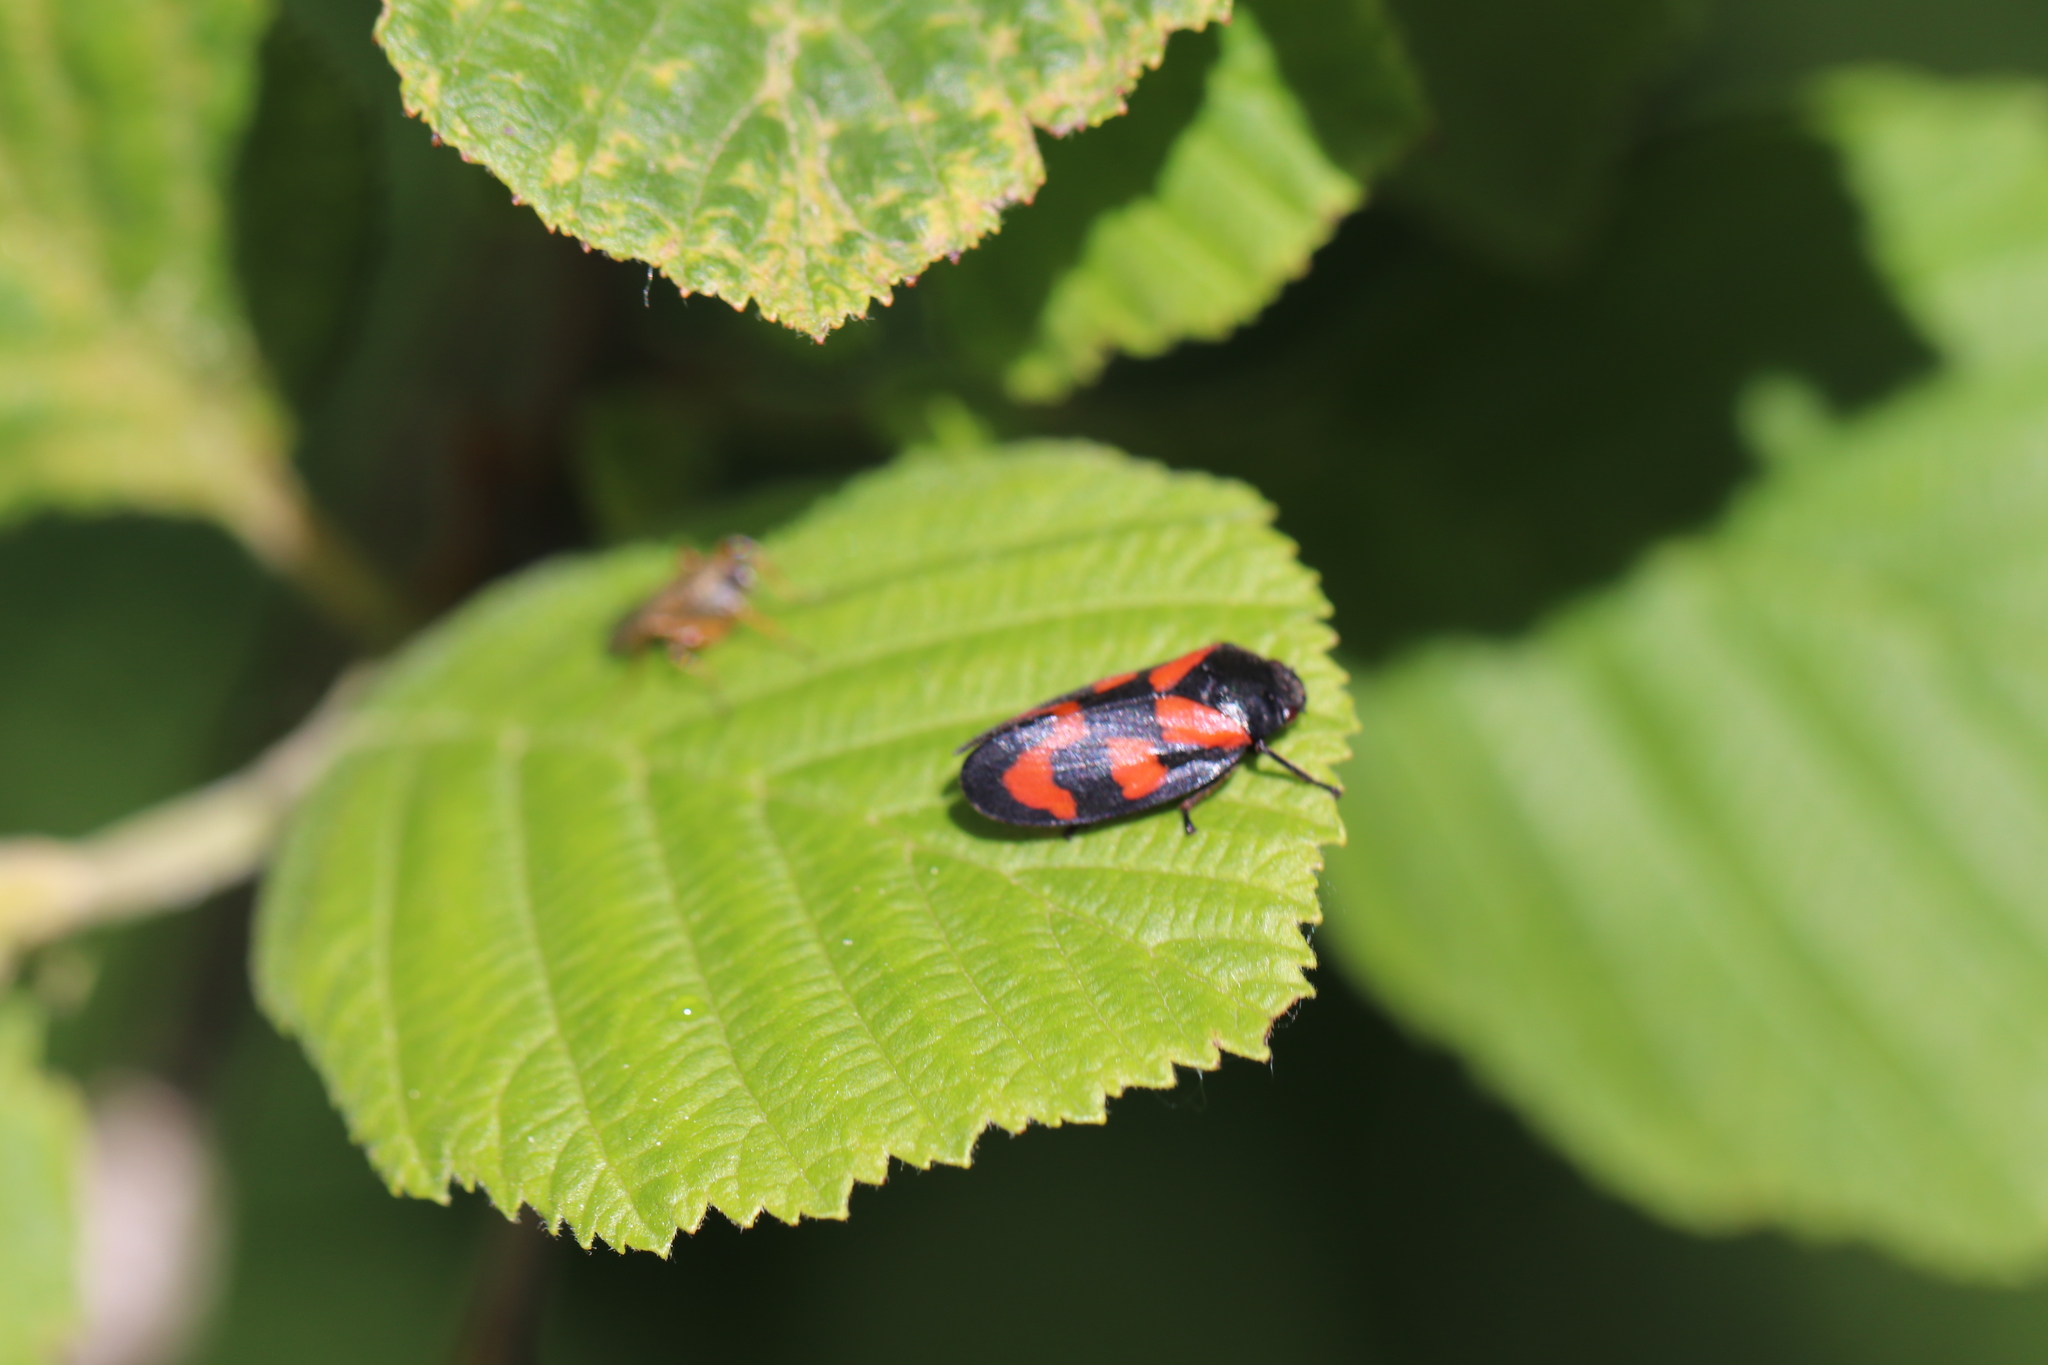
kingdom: Animalia
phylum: Arthropoda
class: Insecta
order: Hemiptera
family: Cercopidae
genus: Cercopis
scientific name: Cercopis vulnerata
